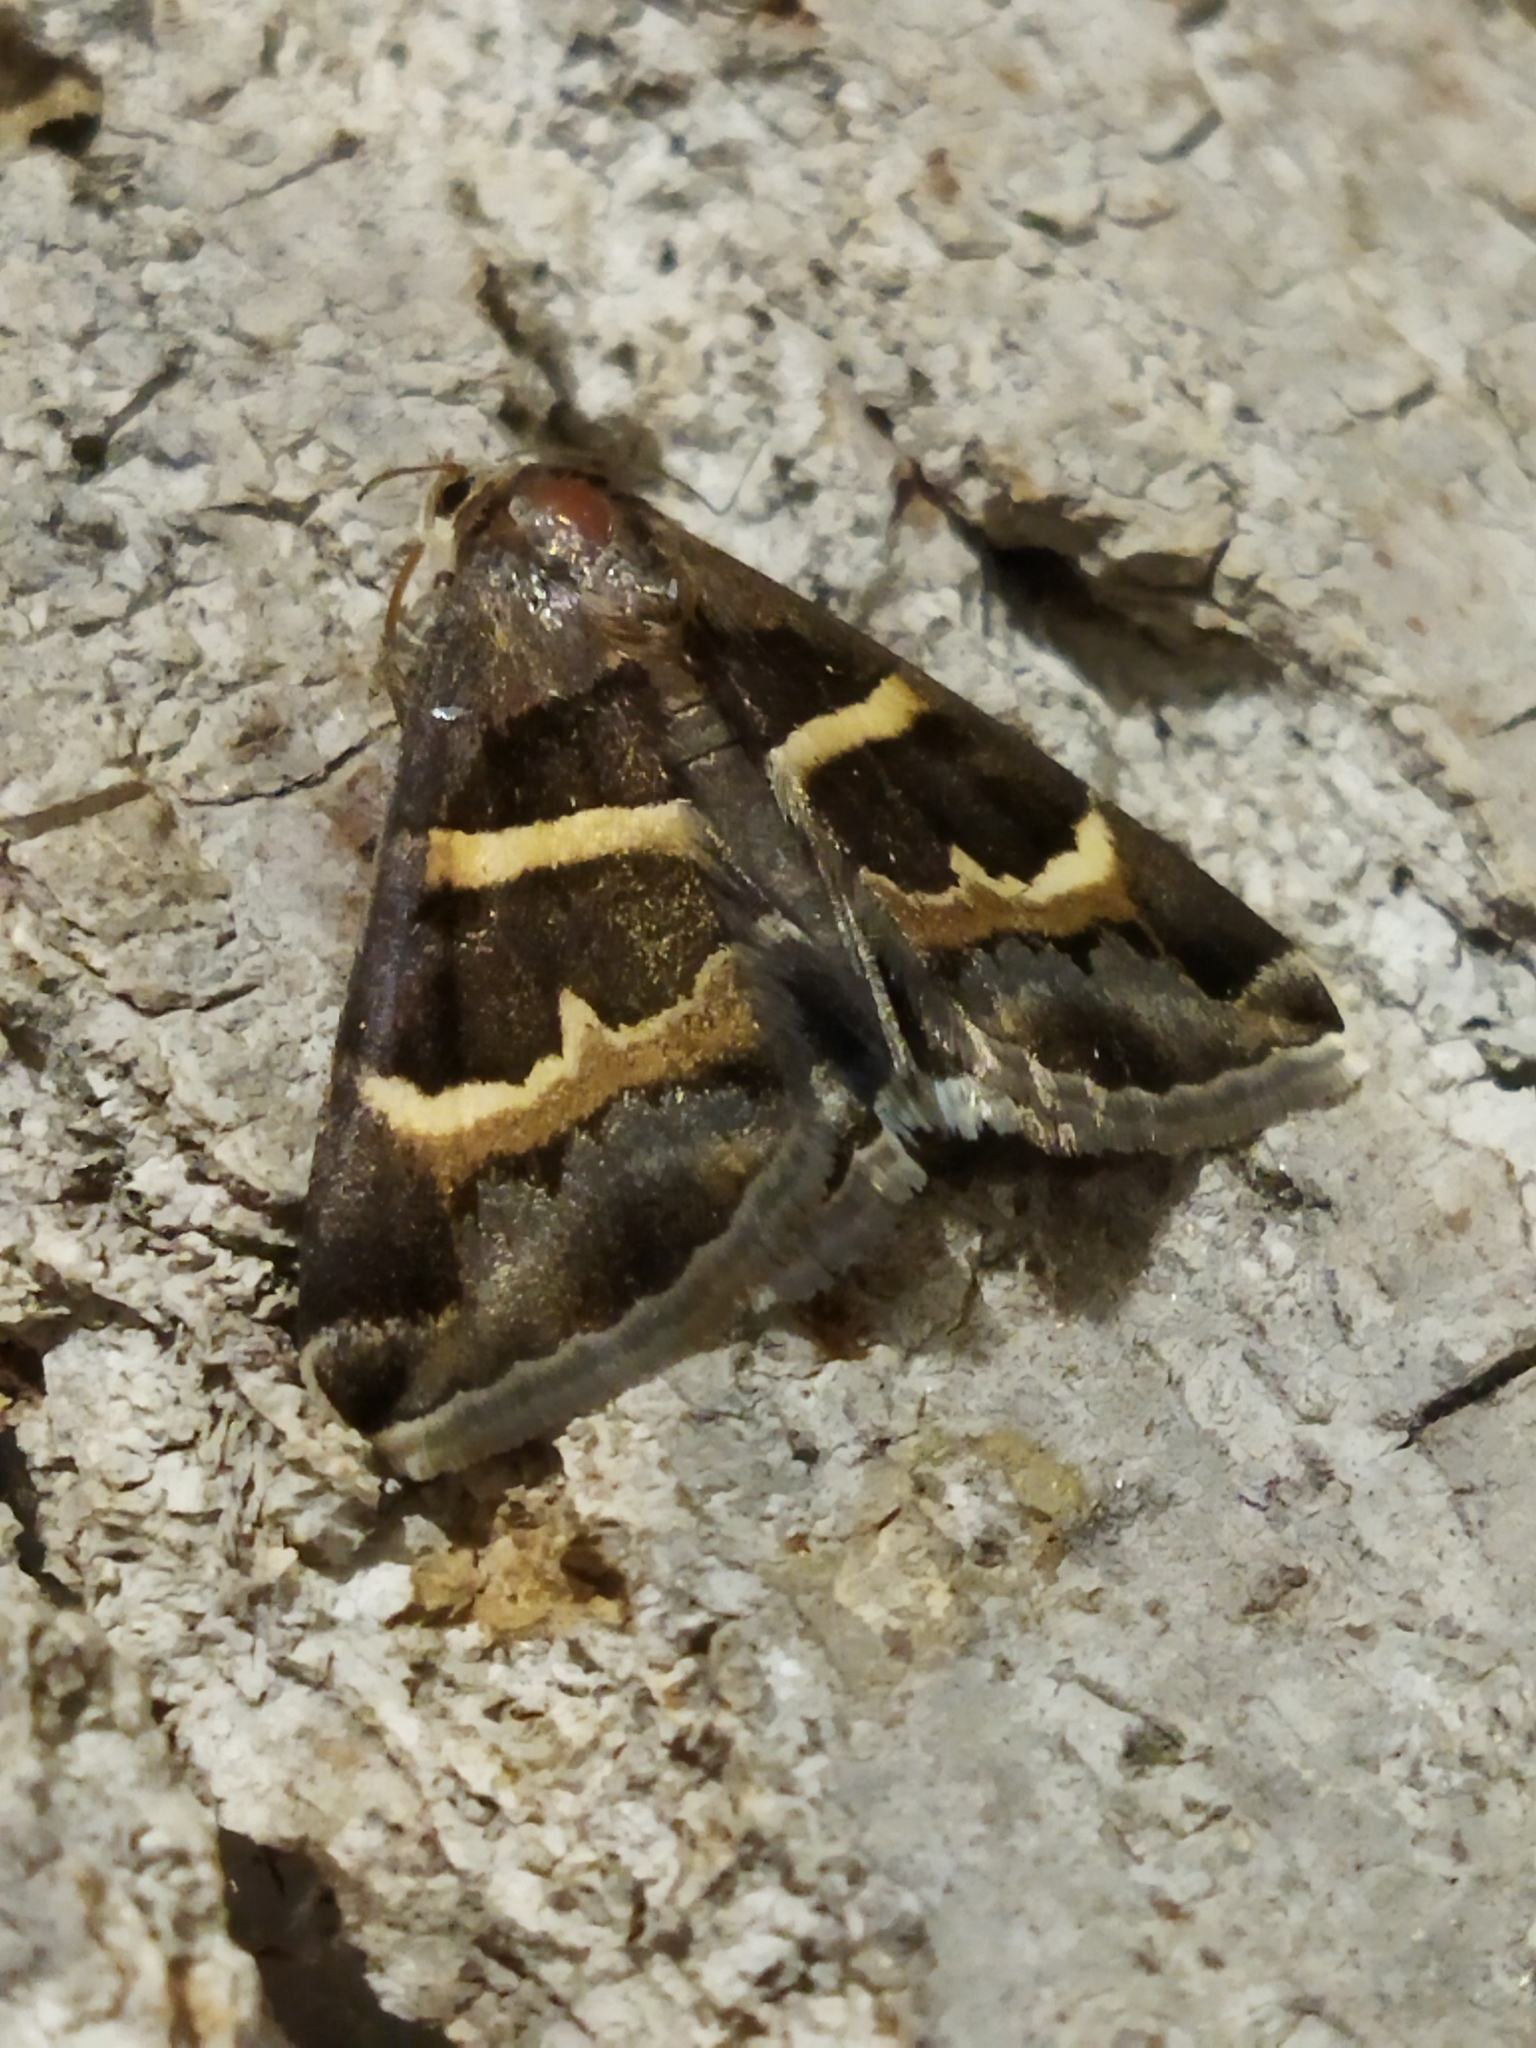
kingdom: Animalia
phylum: Arthropoda
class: Insecta
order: Lepidoptera
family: Erebidae
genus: Grammodes
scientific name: Grammodes stolida
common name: Geometrician
